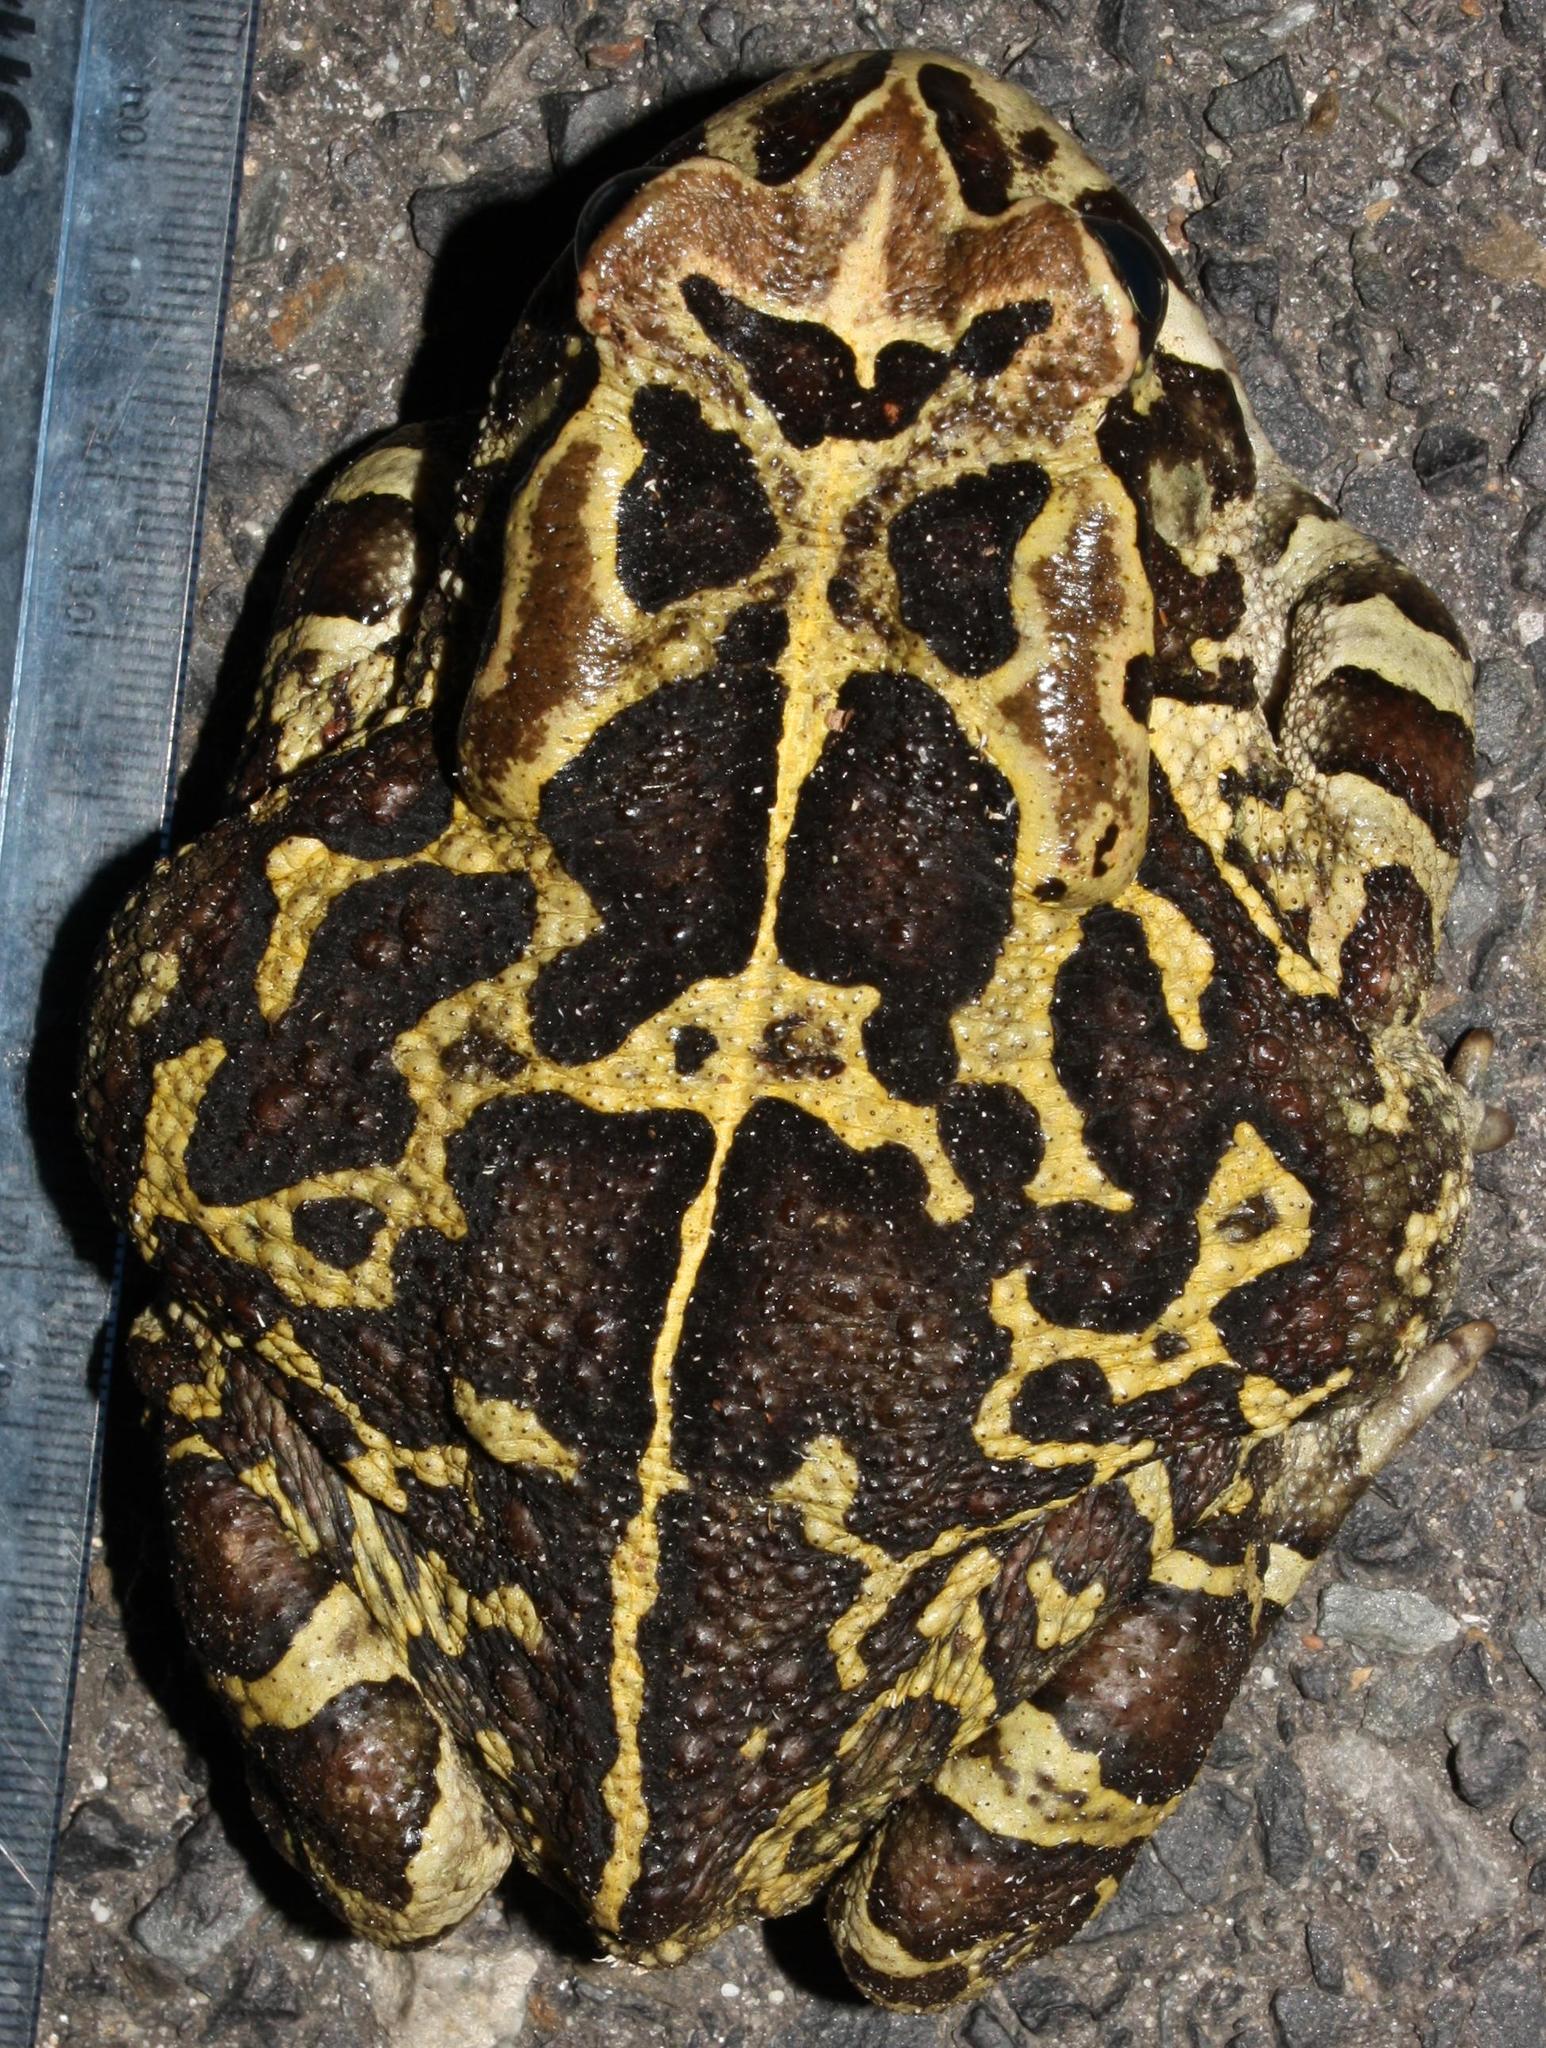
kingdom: Animalia
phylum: Chordata
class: Amphibia
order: Anura
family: Bufonidae
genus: Sclerophrys
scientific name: Sclerophrys pantherina
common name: Panther toad
